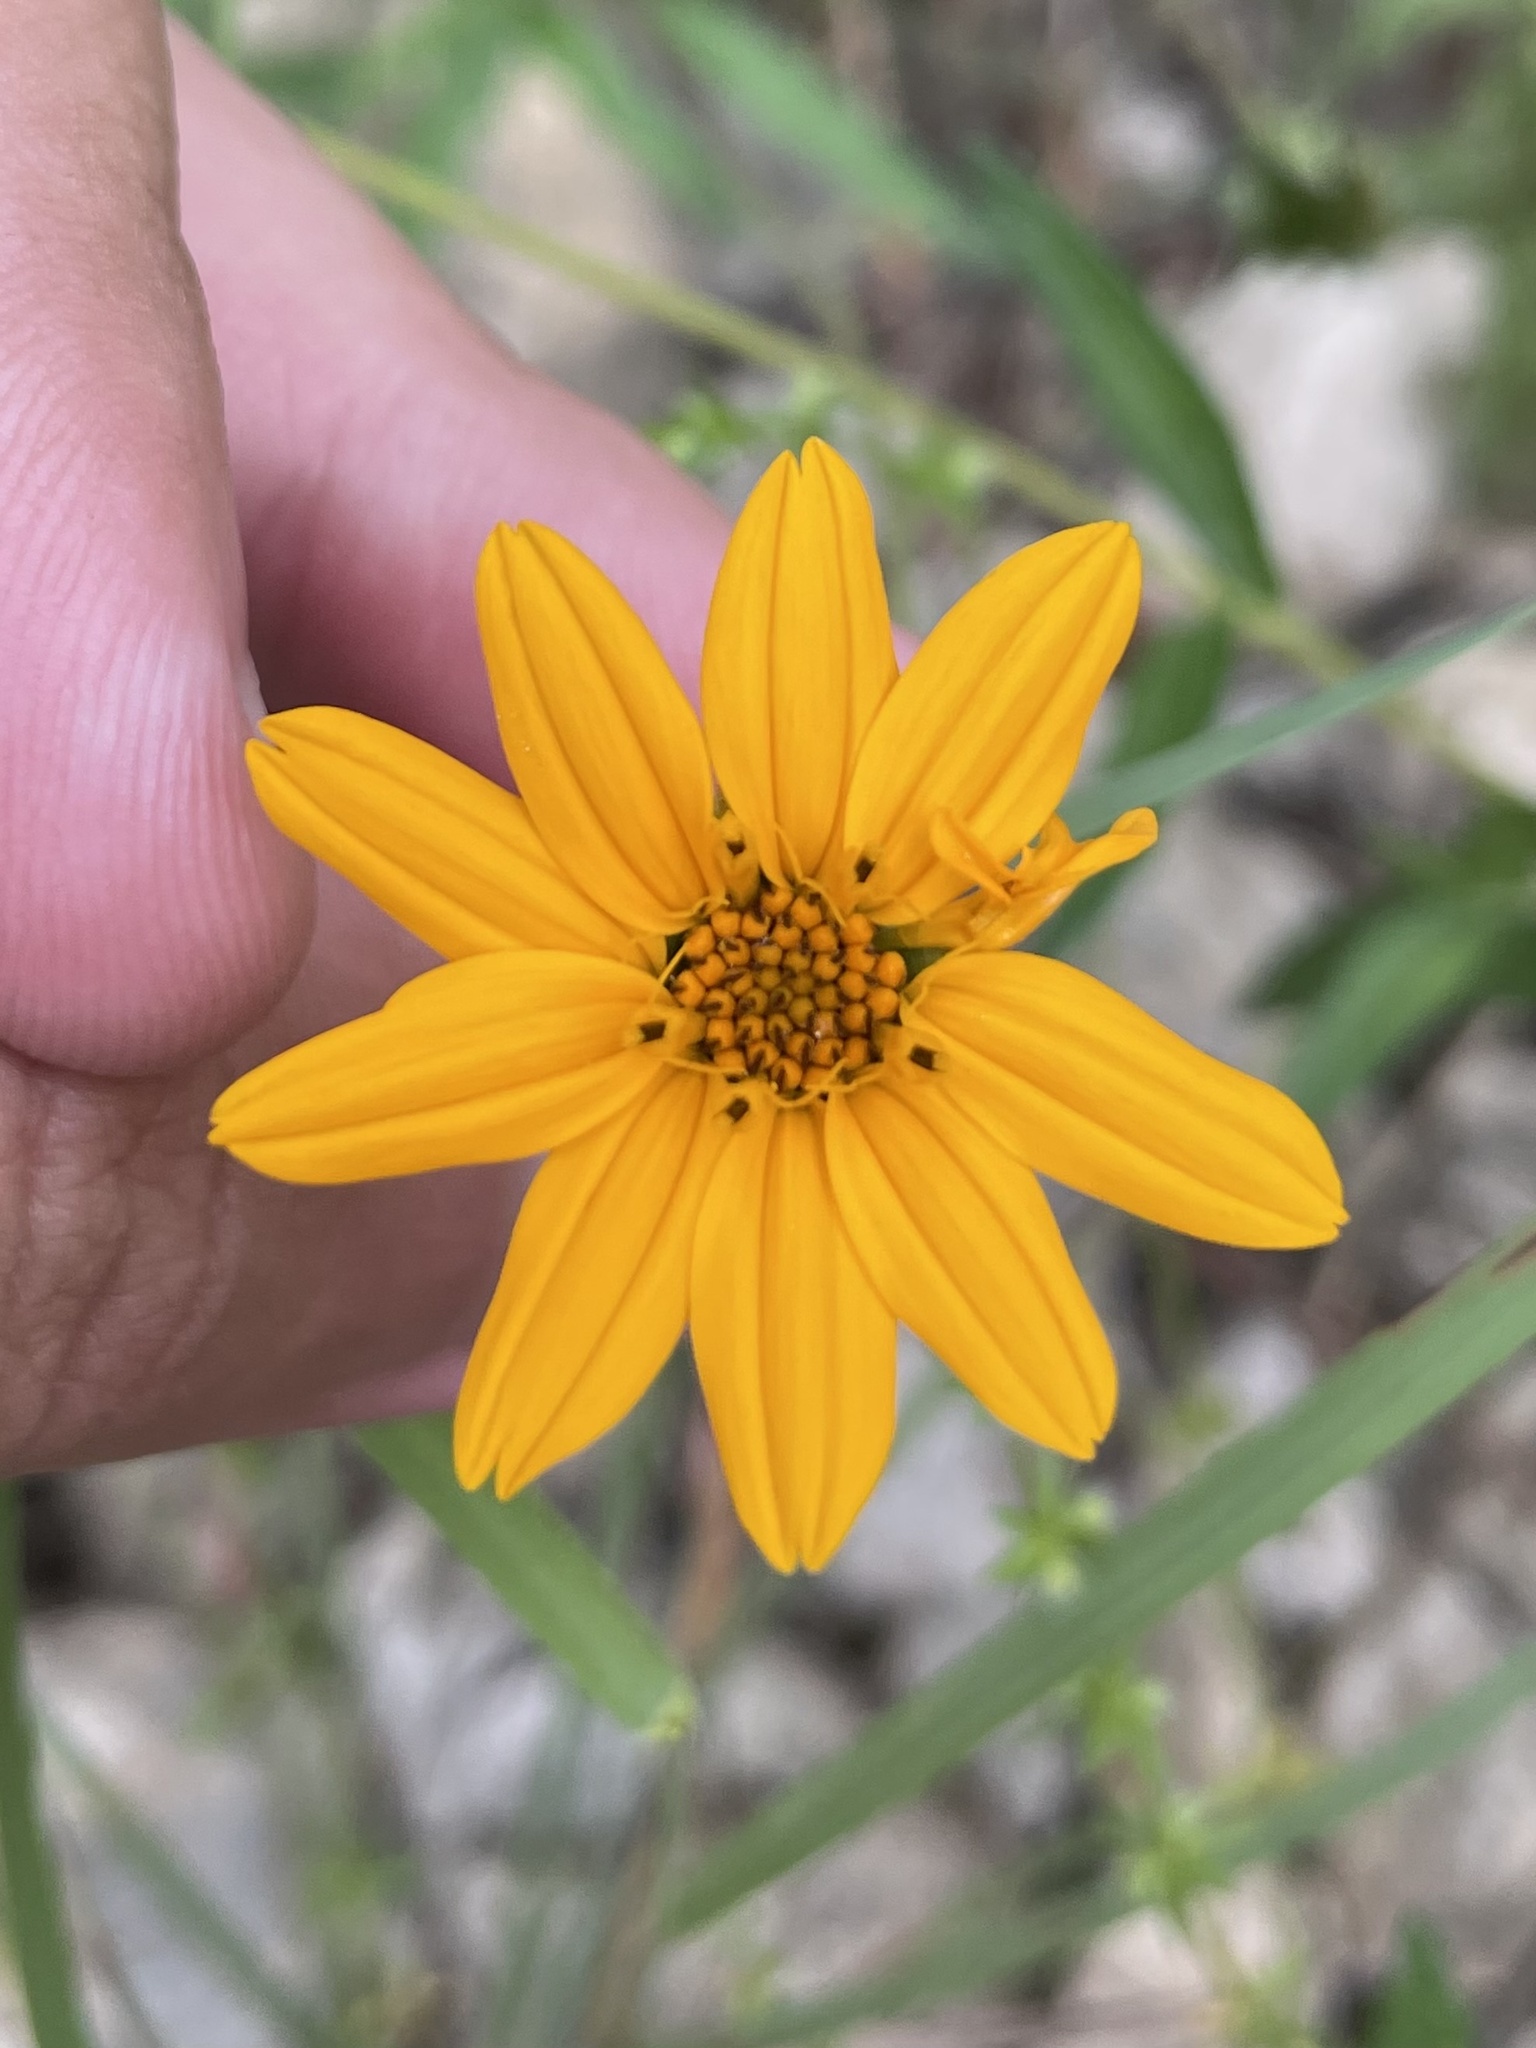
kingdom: Plantae
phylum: Tracheophyta
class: Magnoliopsida
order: Asterales
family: Asteraceae
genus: Wedelia
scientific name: Wedelia acapulcensis
